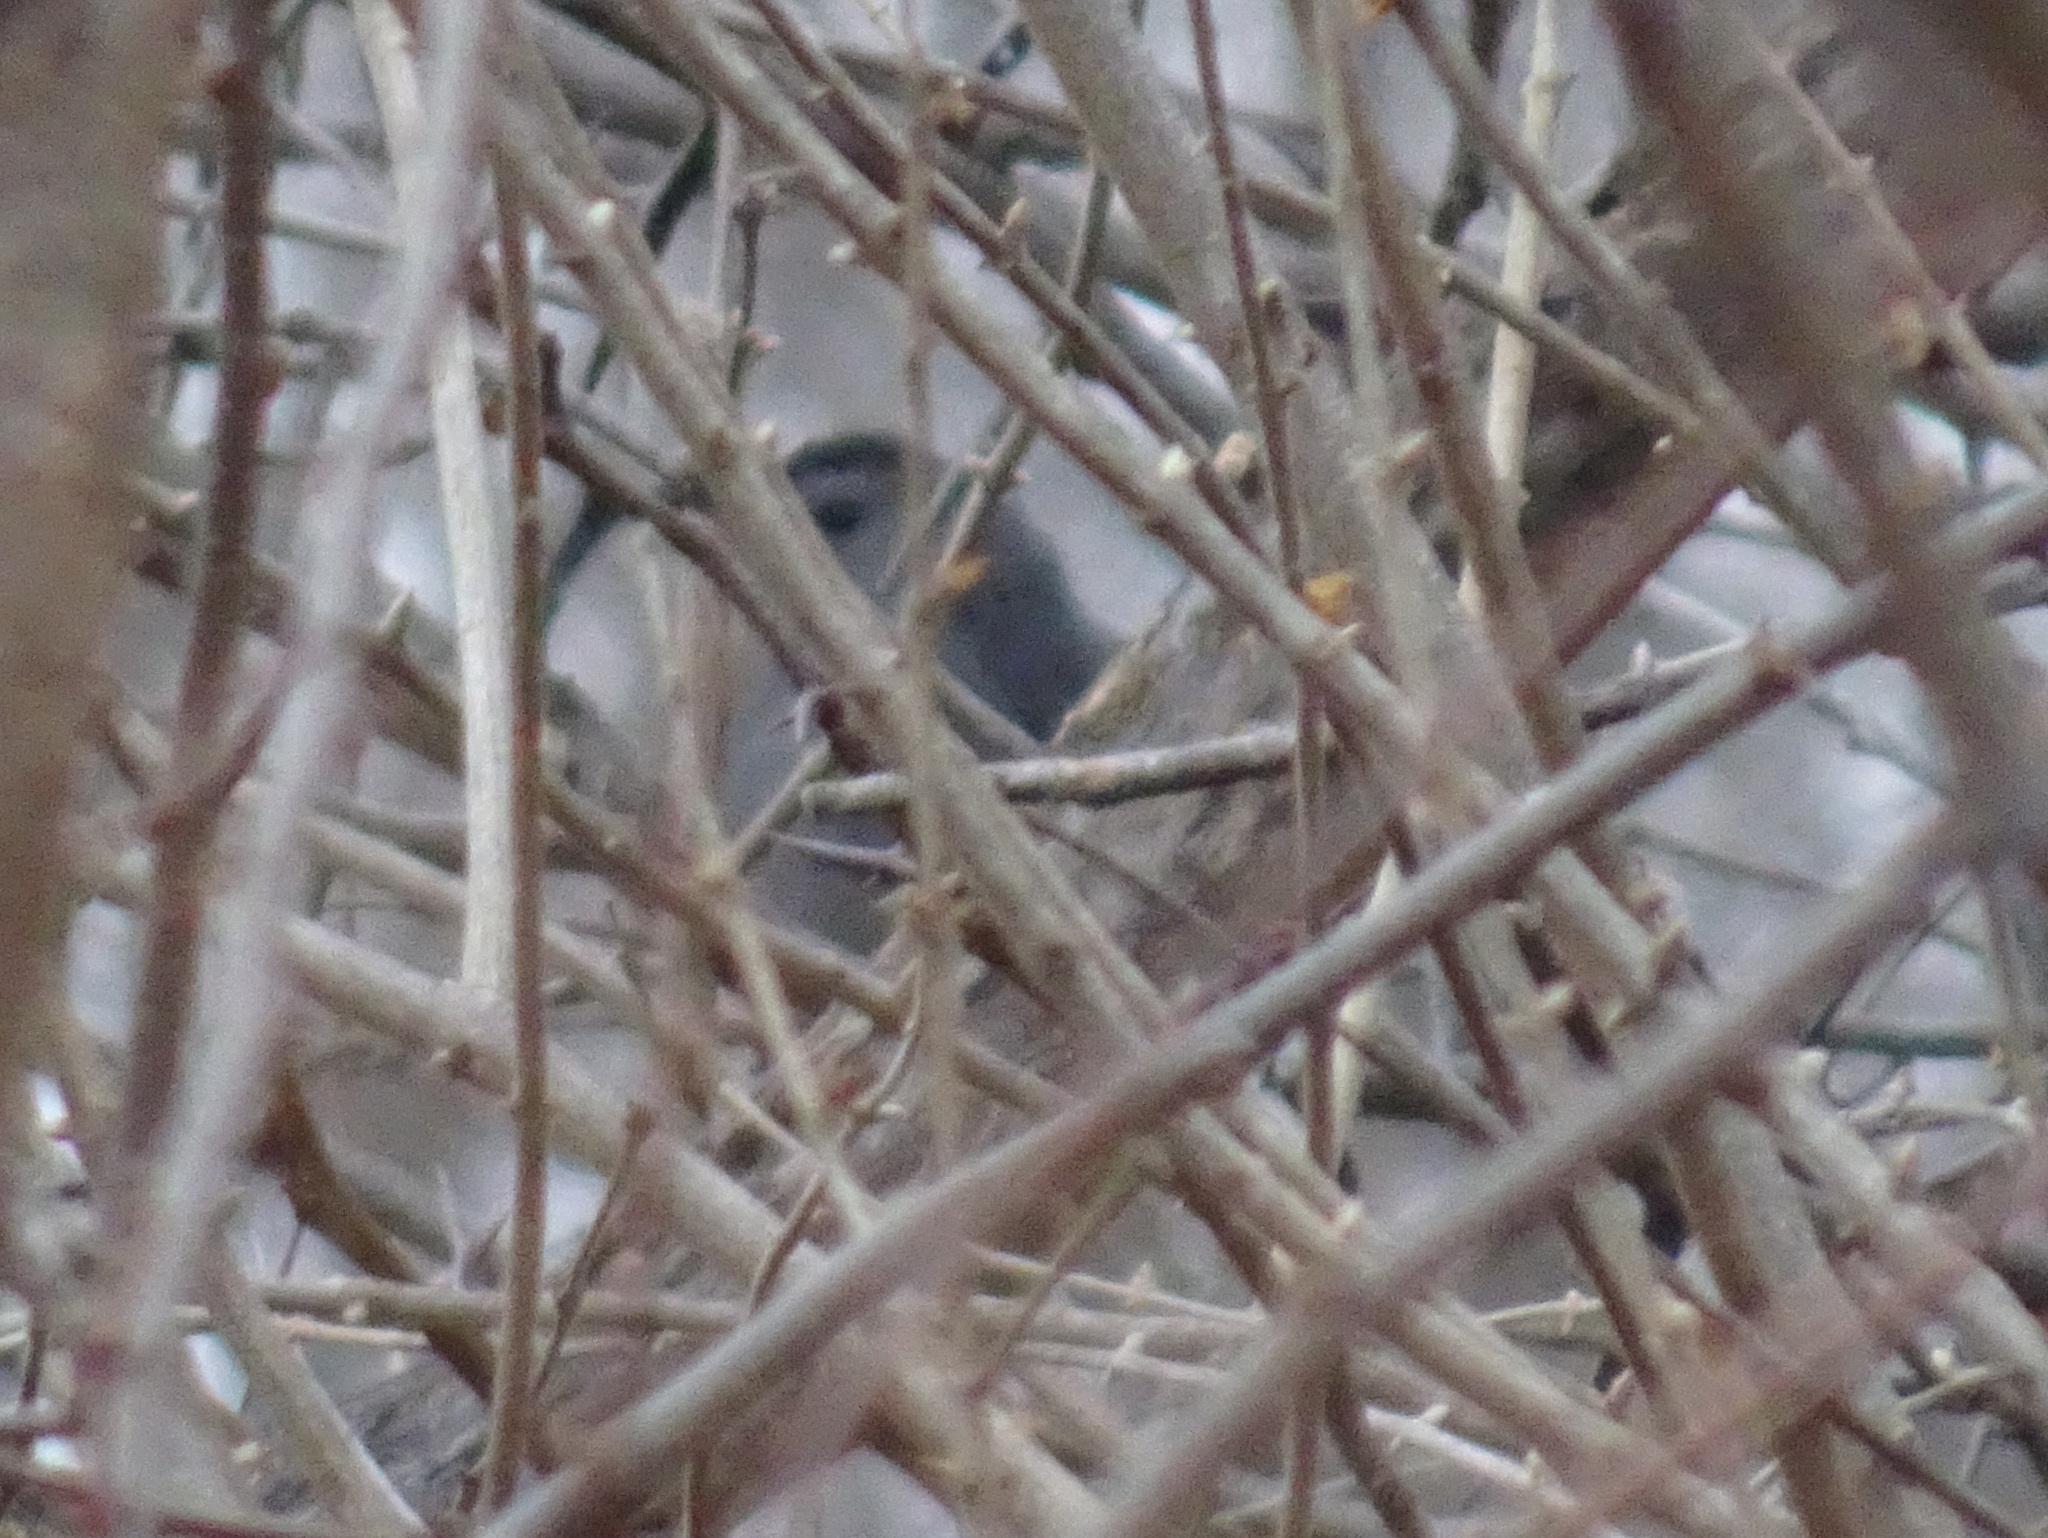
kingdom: Animalia
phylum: Chordata
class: Aves
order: Passeriformes
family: Mimidae
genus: Dumetella
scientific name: Dumetella carolinensis
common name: Gray catbird
